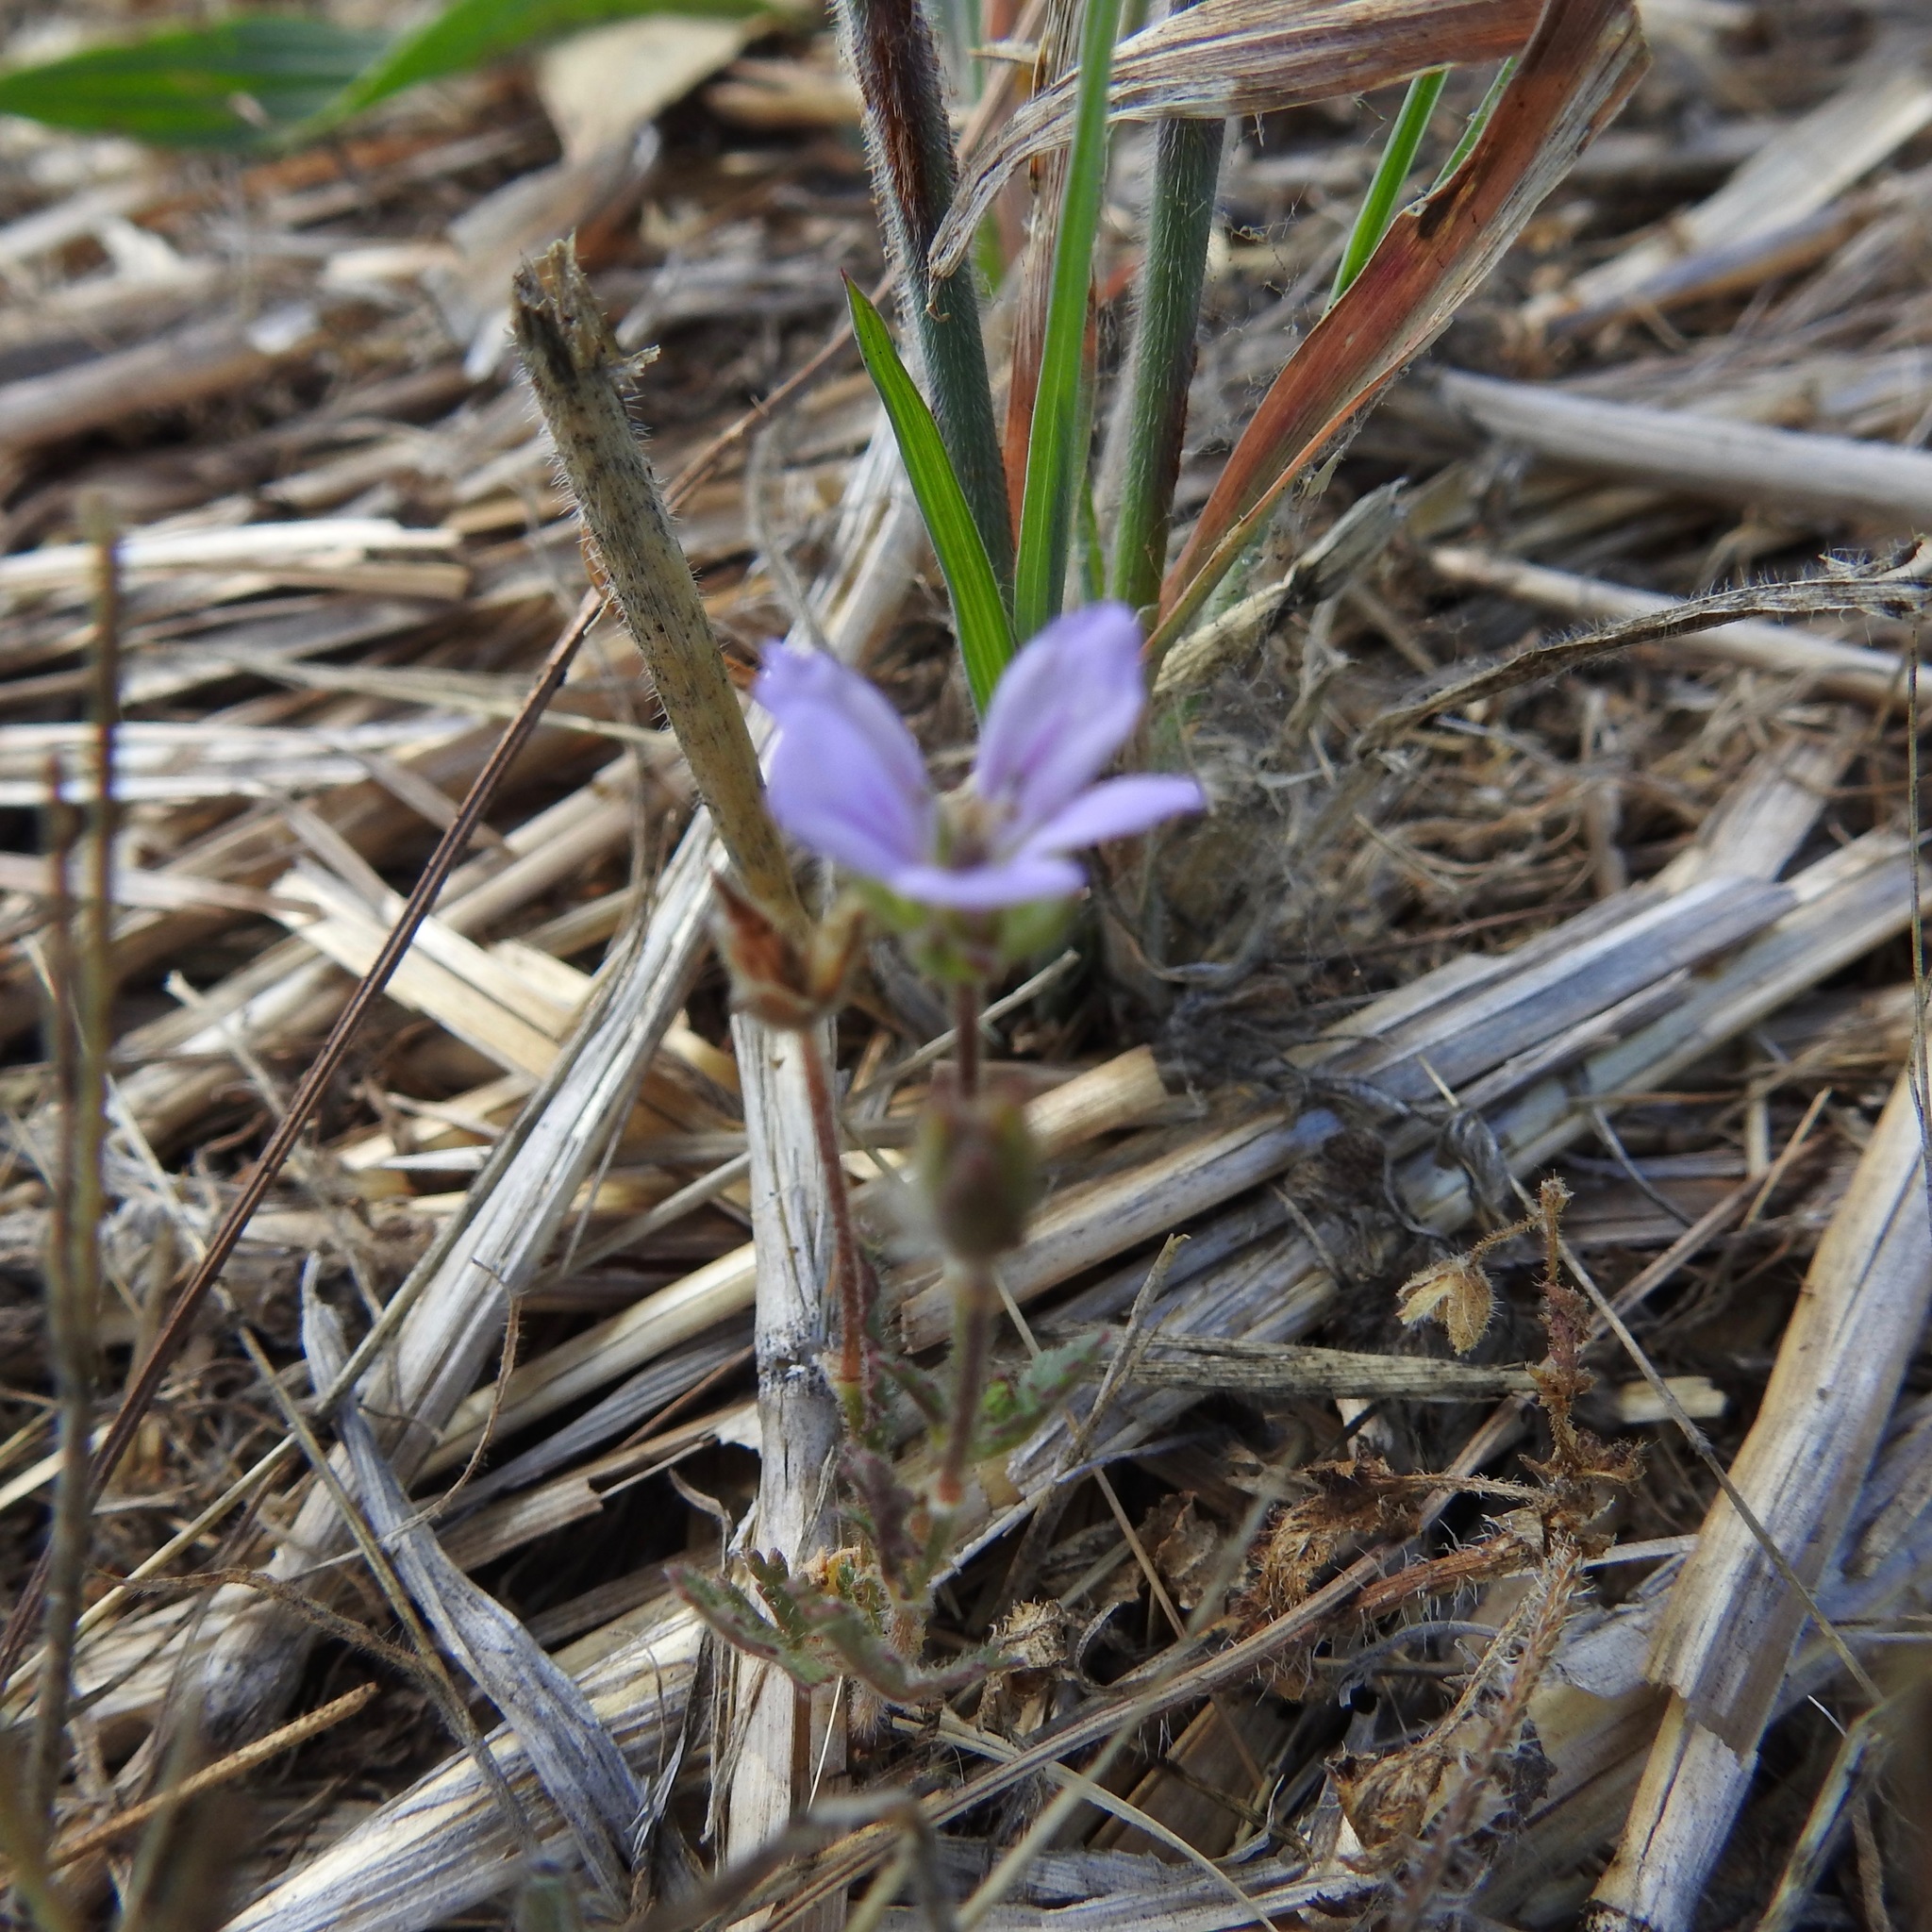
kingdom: Plantae
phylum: Tracheophyta
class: Magnoliopsida
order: Geraniales
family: Geraniaceae
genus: Erodium
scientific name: Erodium botrys
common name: Mediterranean stork's-bill
